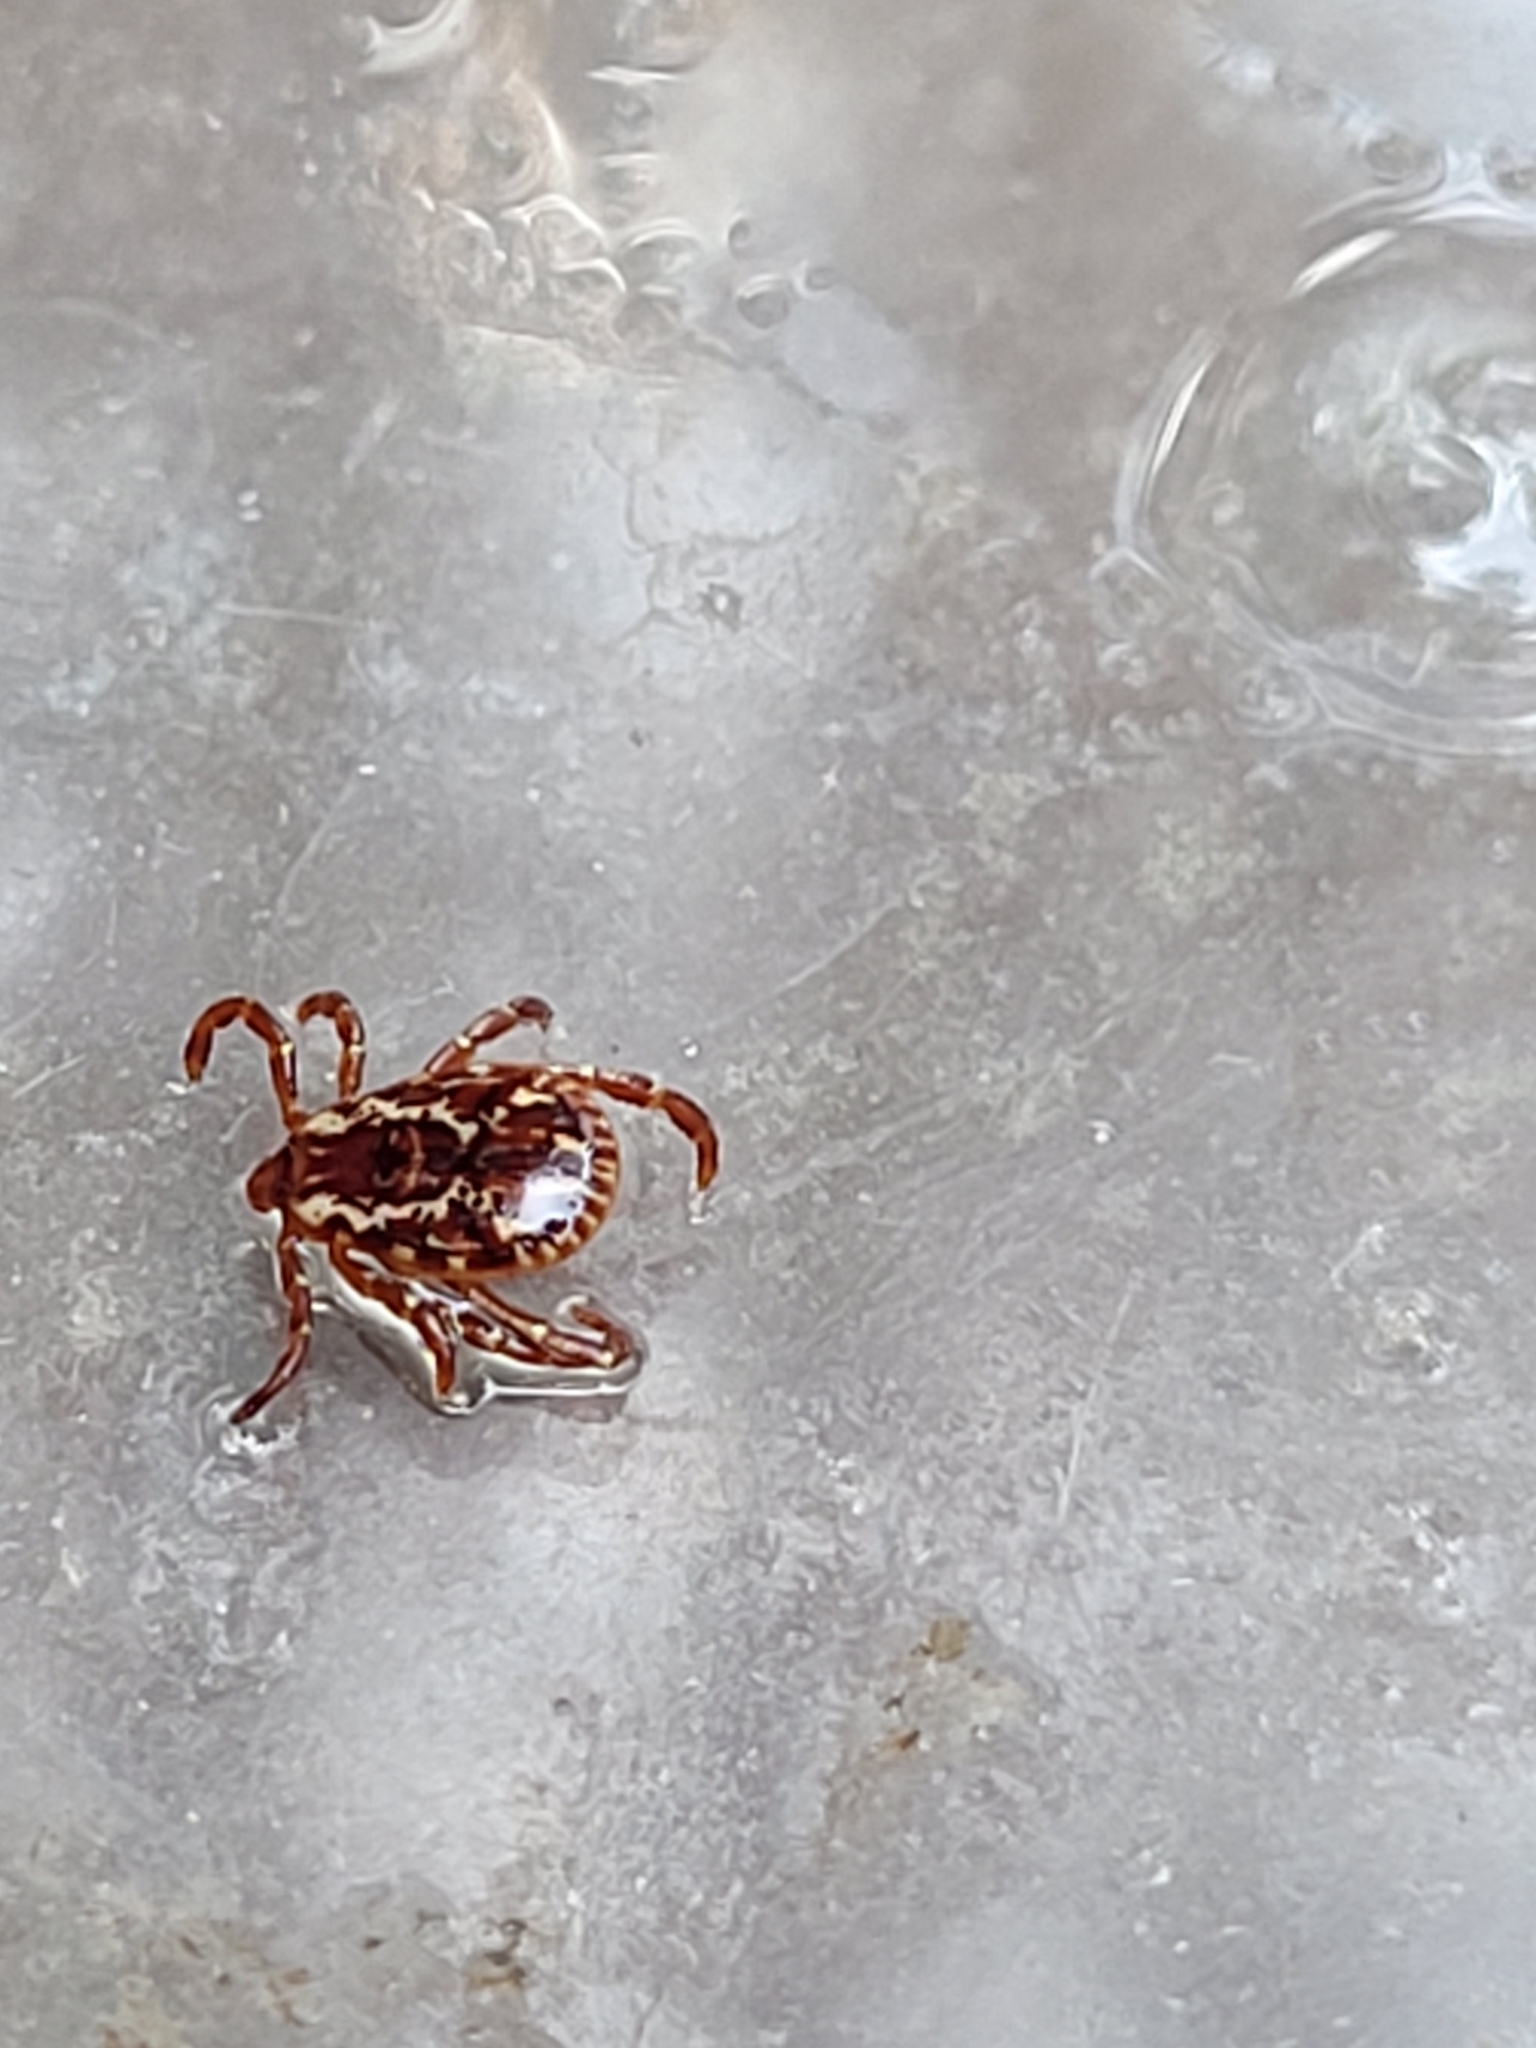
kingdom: Animalia
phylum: Arthropoda
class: Arachnida
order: Ixodida
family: Ixodidae
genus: Dermacentor
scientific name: Dermacentor variabilis
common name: American dog tick
